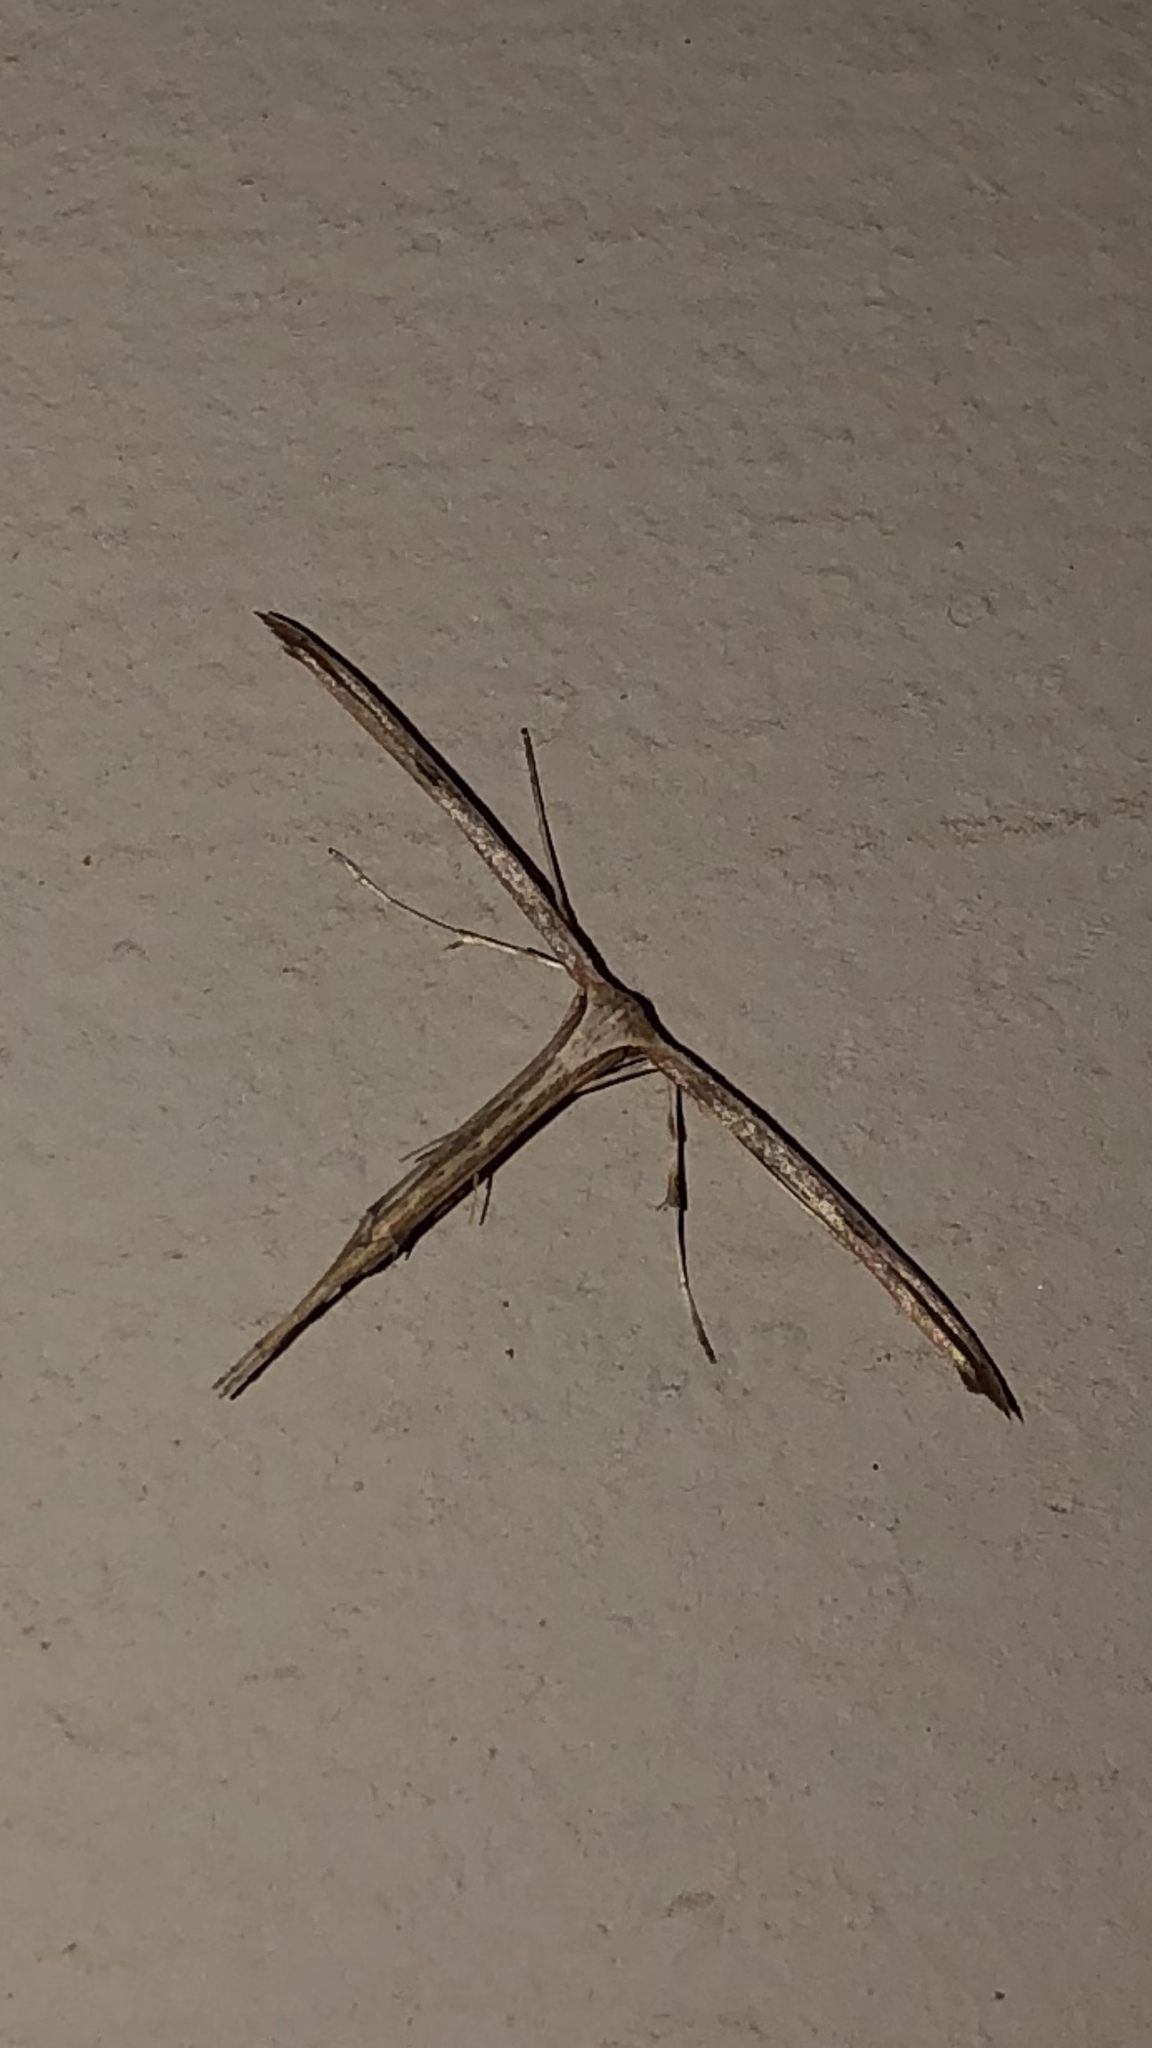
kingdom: Animalia
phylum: Arthropoda
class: Insecta
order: Lepidoptera
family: Pterophoridae
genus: Emmelina
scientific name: Emmelina monodactyla
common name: Common plume
